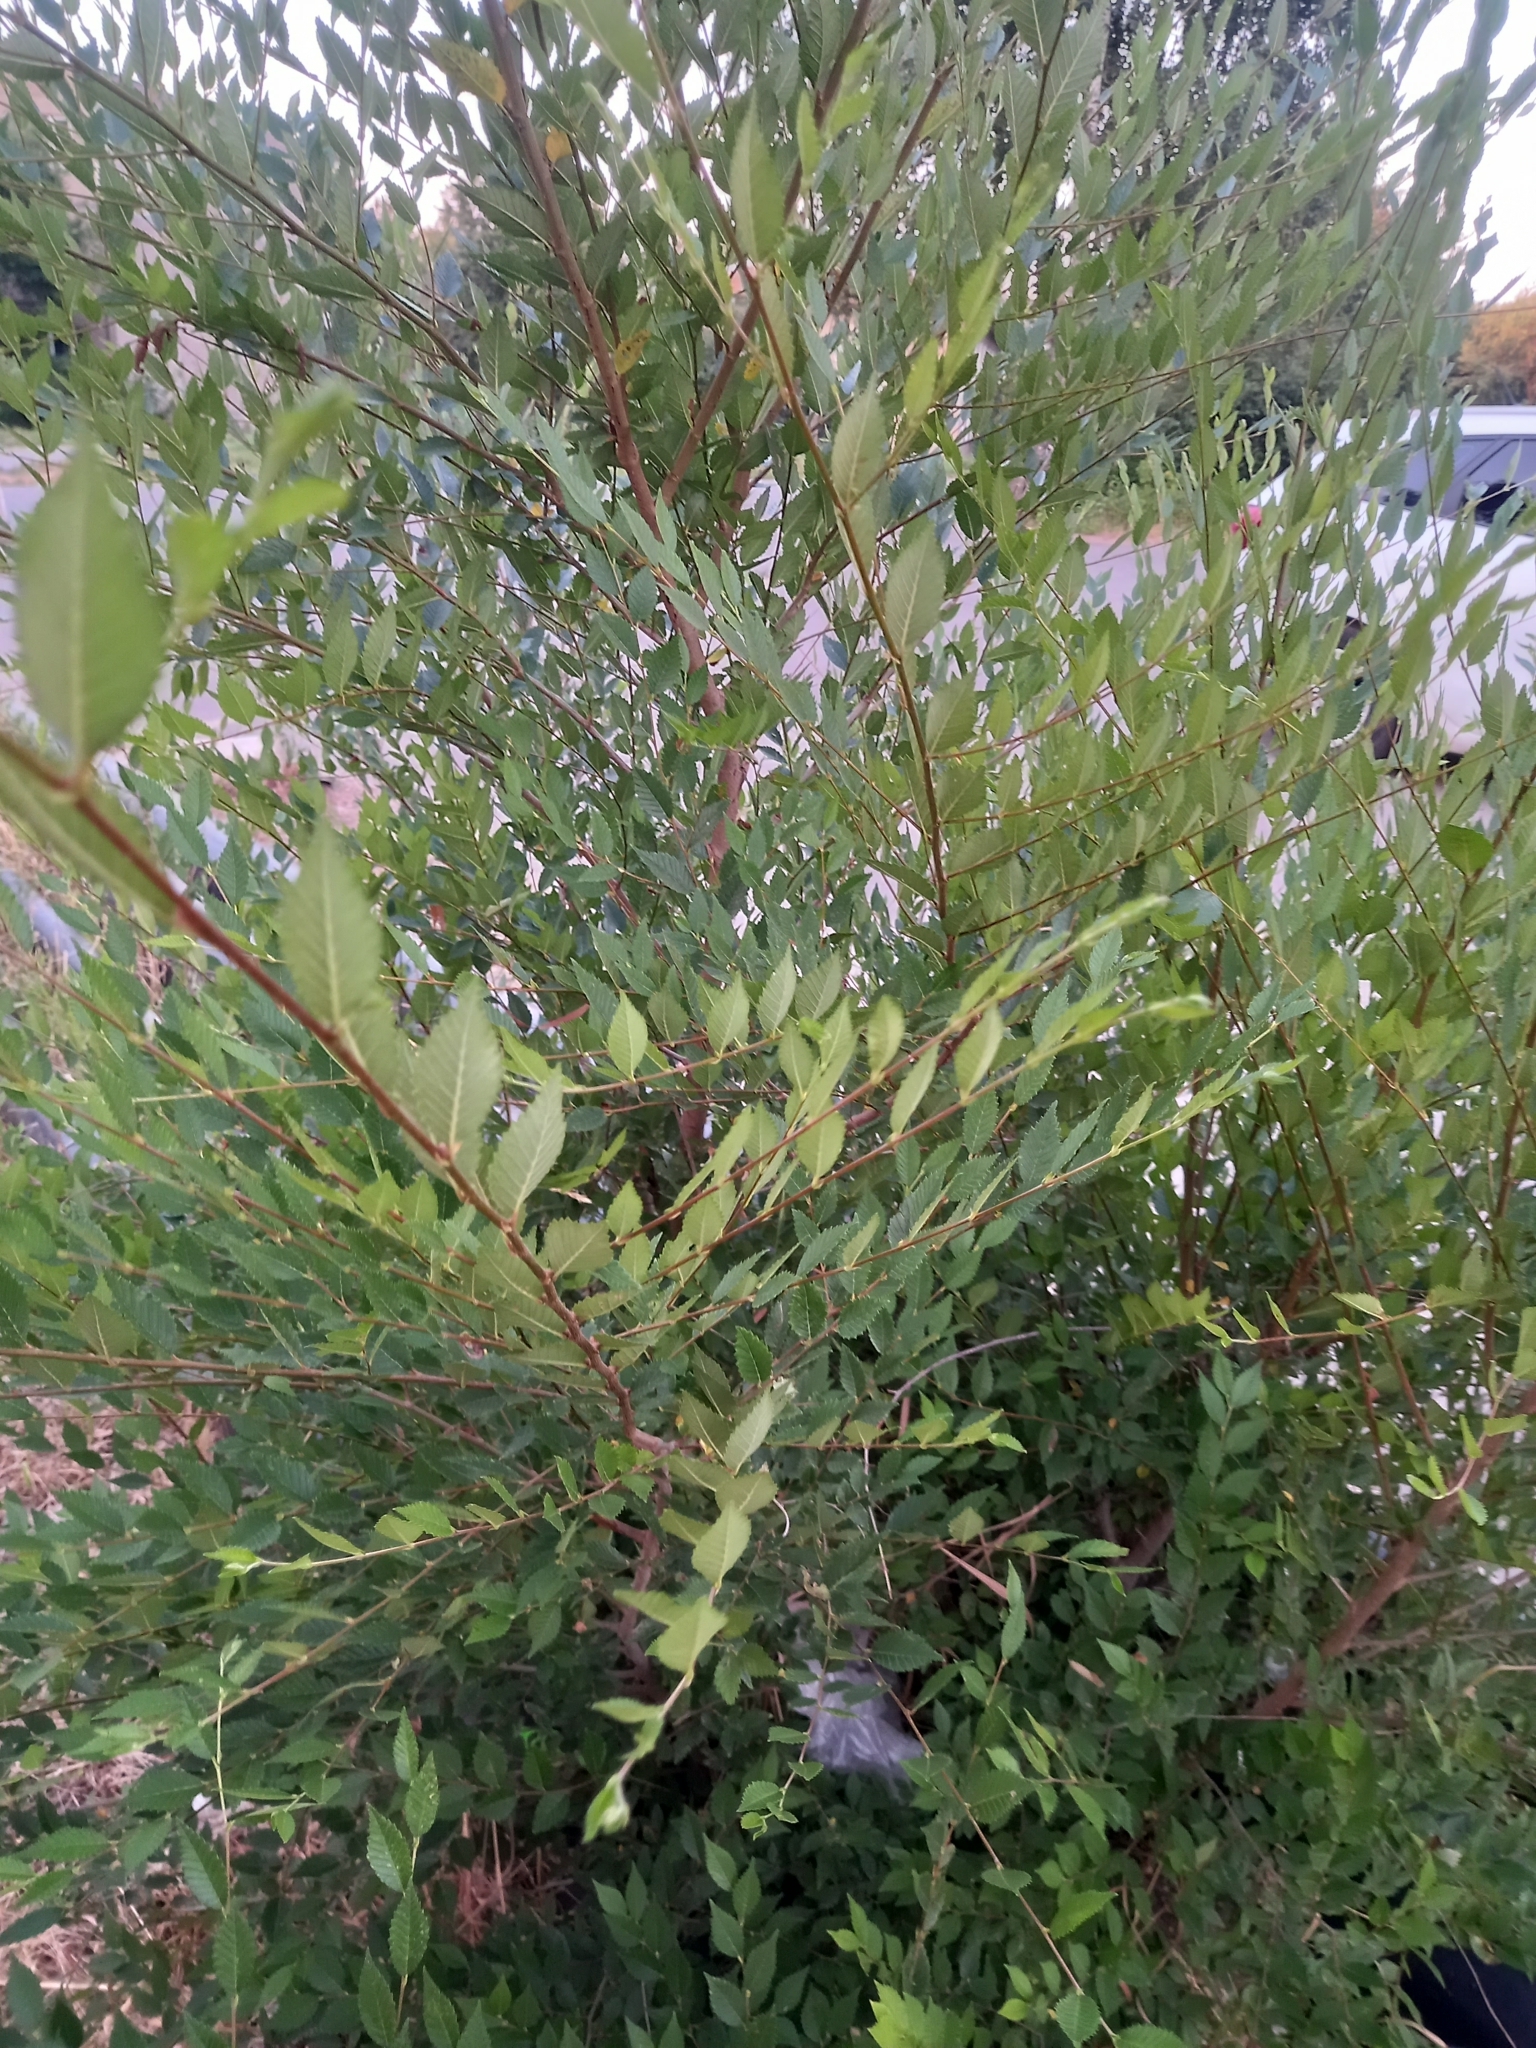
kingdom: Plantae
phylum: Tracheophyta
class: Magnoliopsida
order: Rosales
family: Ulmaceae
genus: Ulmus
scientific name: Ulmus pumila
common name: Siberian elm
